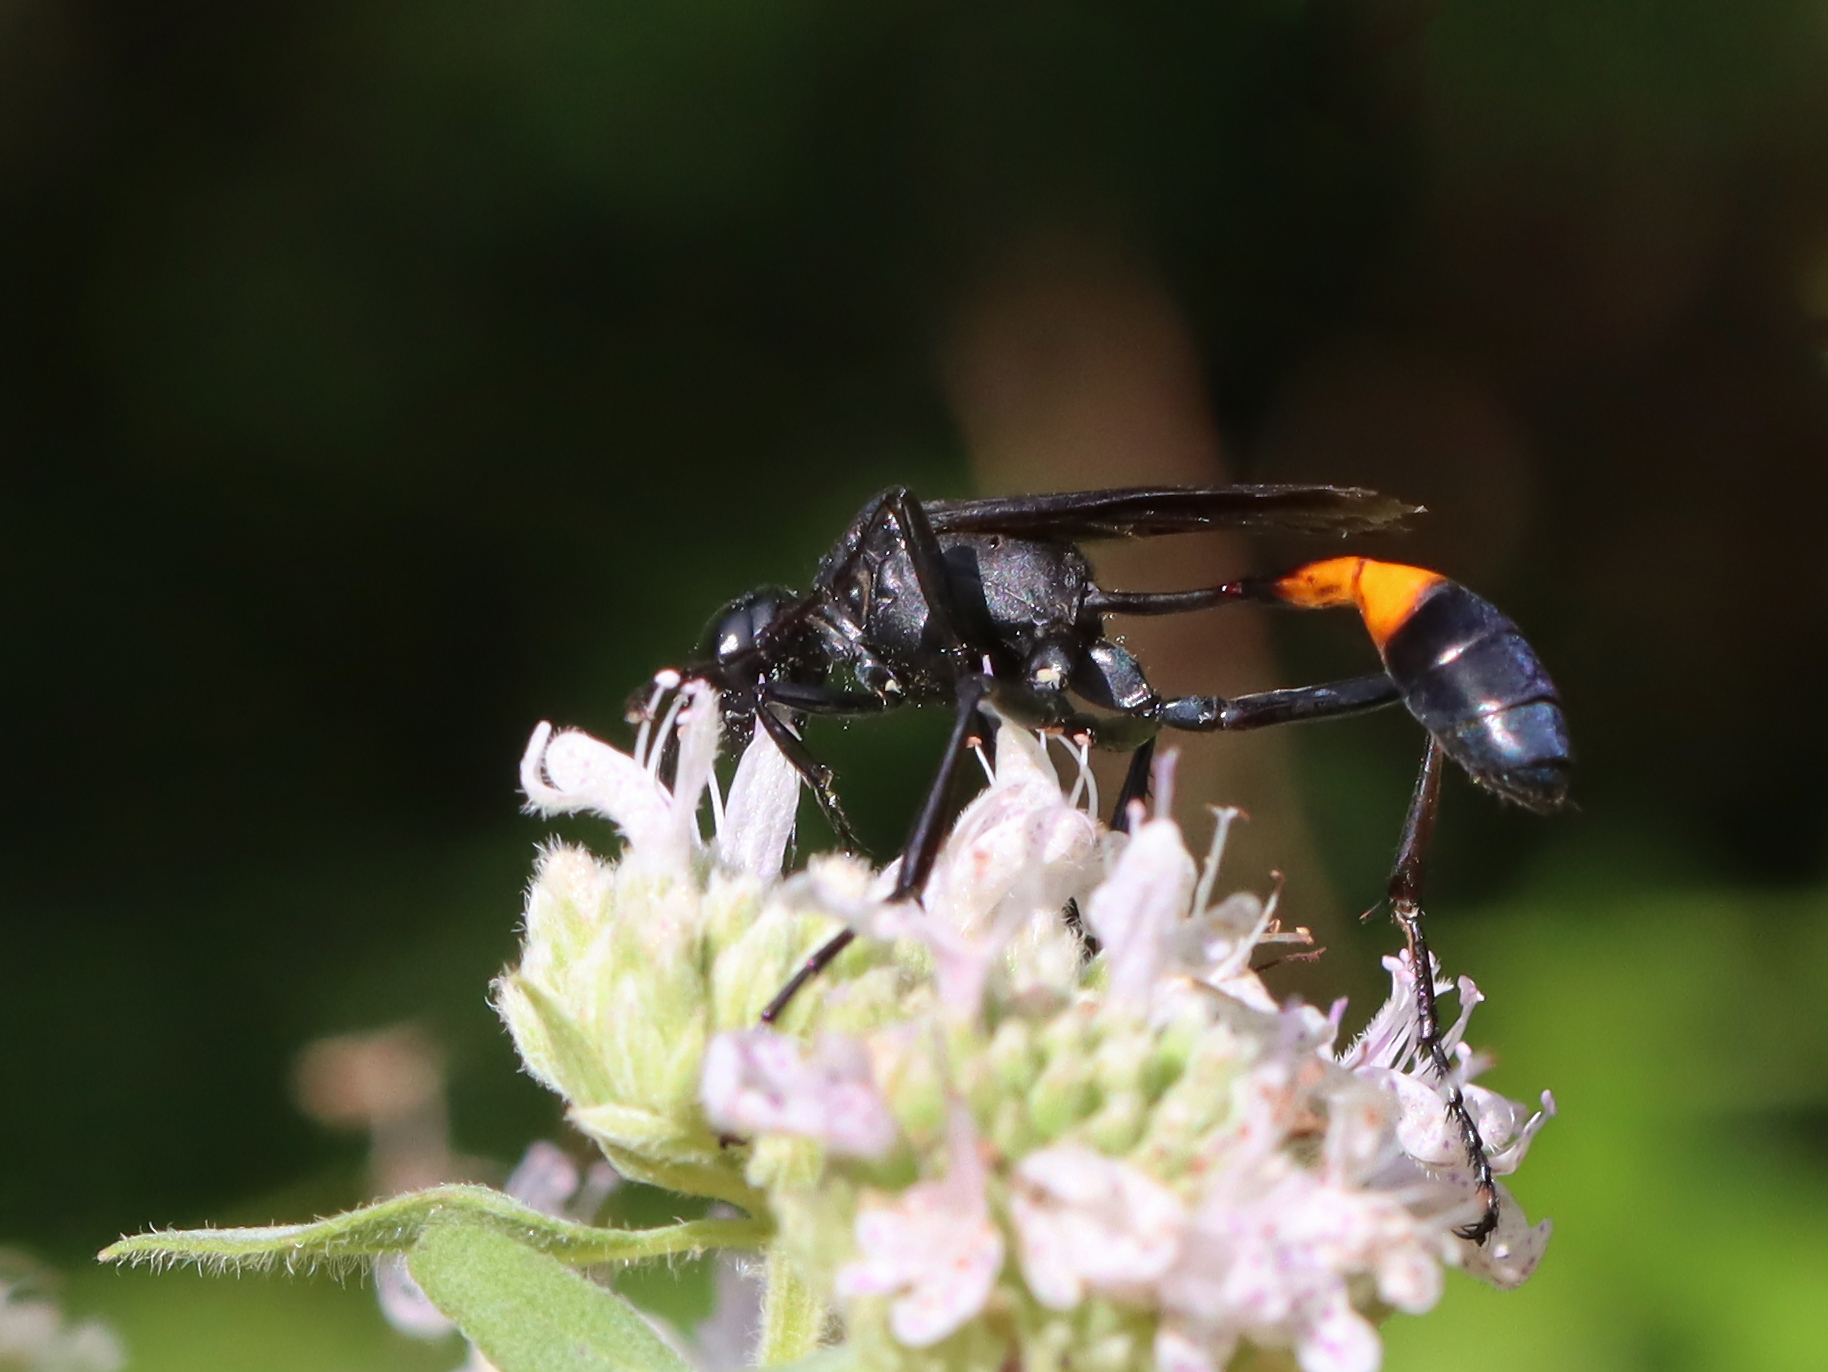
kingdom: Animalia
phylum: Arthropoda
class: Insecta
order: Hymenoptera
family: Sphecidae
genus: Ammophila
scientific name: Ammophila nigricans
